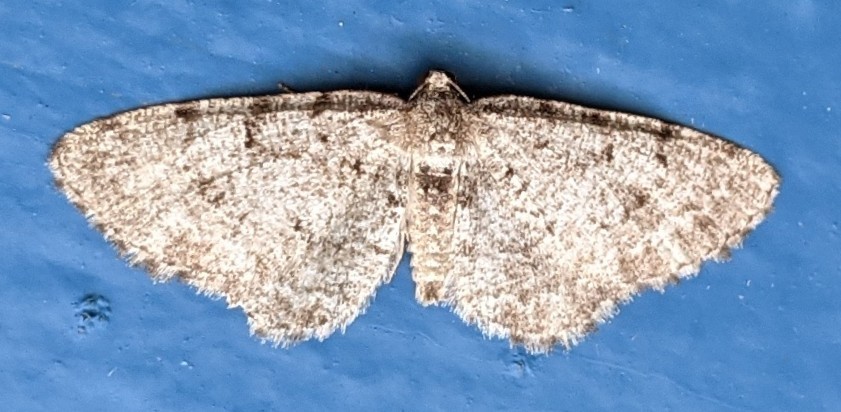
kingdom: Animalia
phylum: Arthropoda
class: Insecta
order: Lepidoptera
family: Geometridae
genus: Aethalura
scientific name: Aethalura intertexta
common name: Four-barred gray
